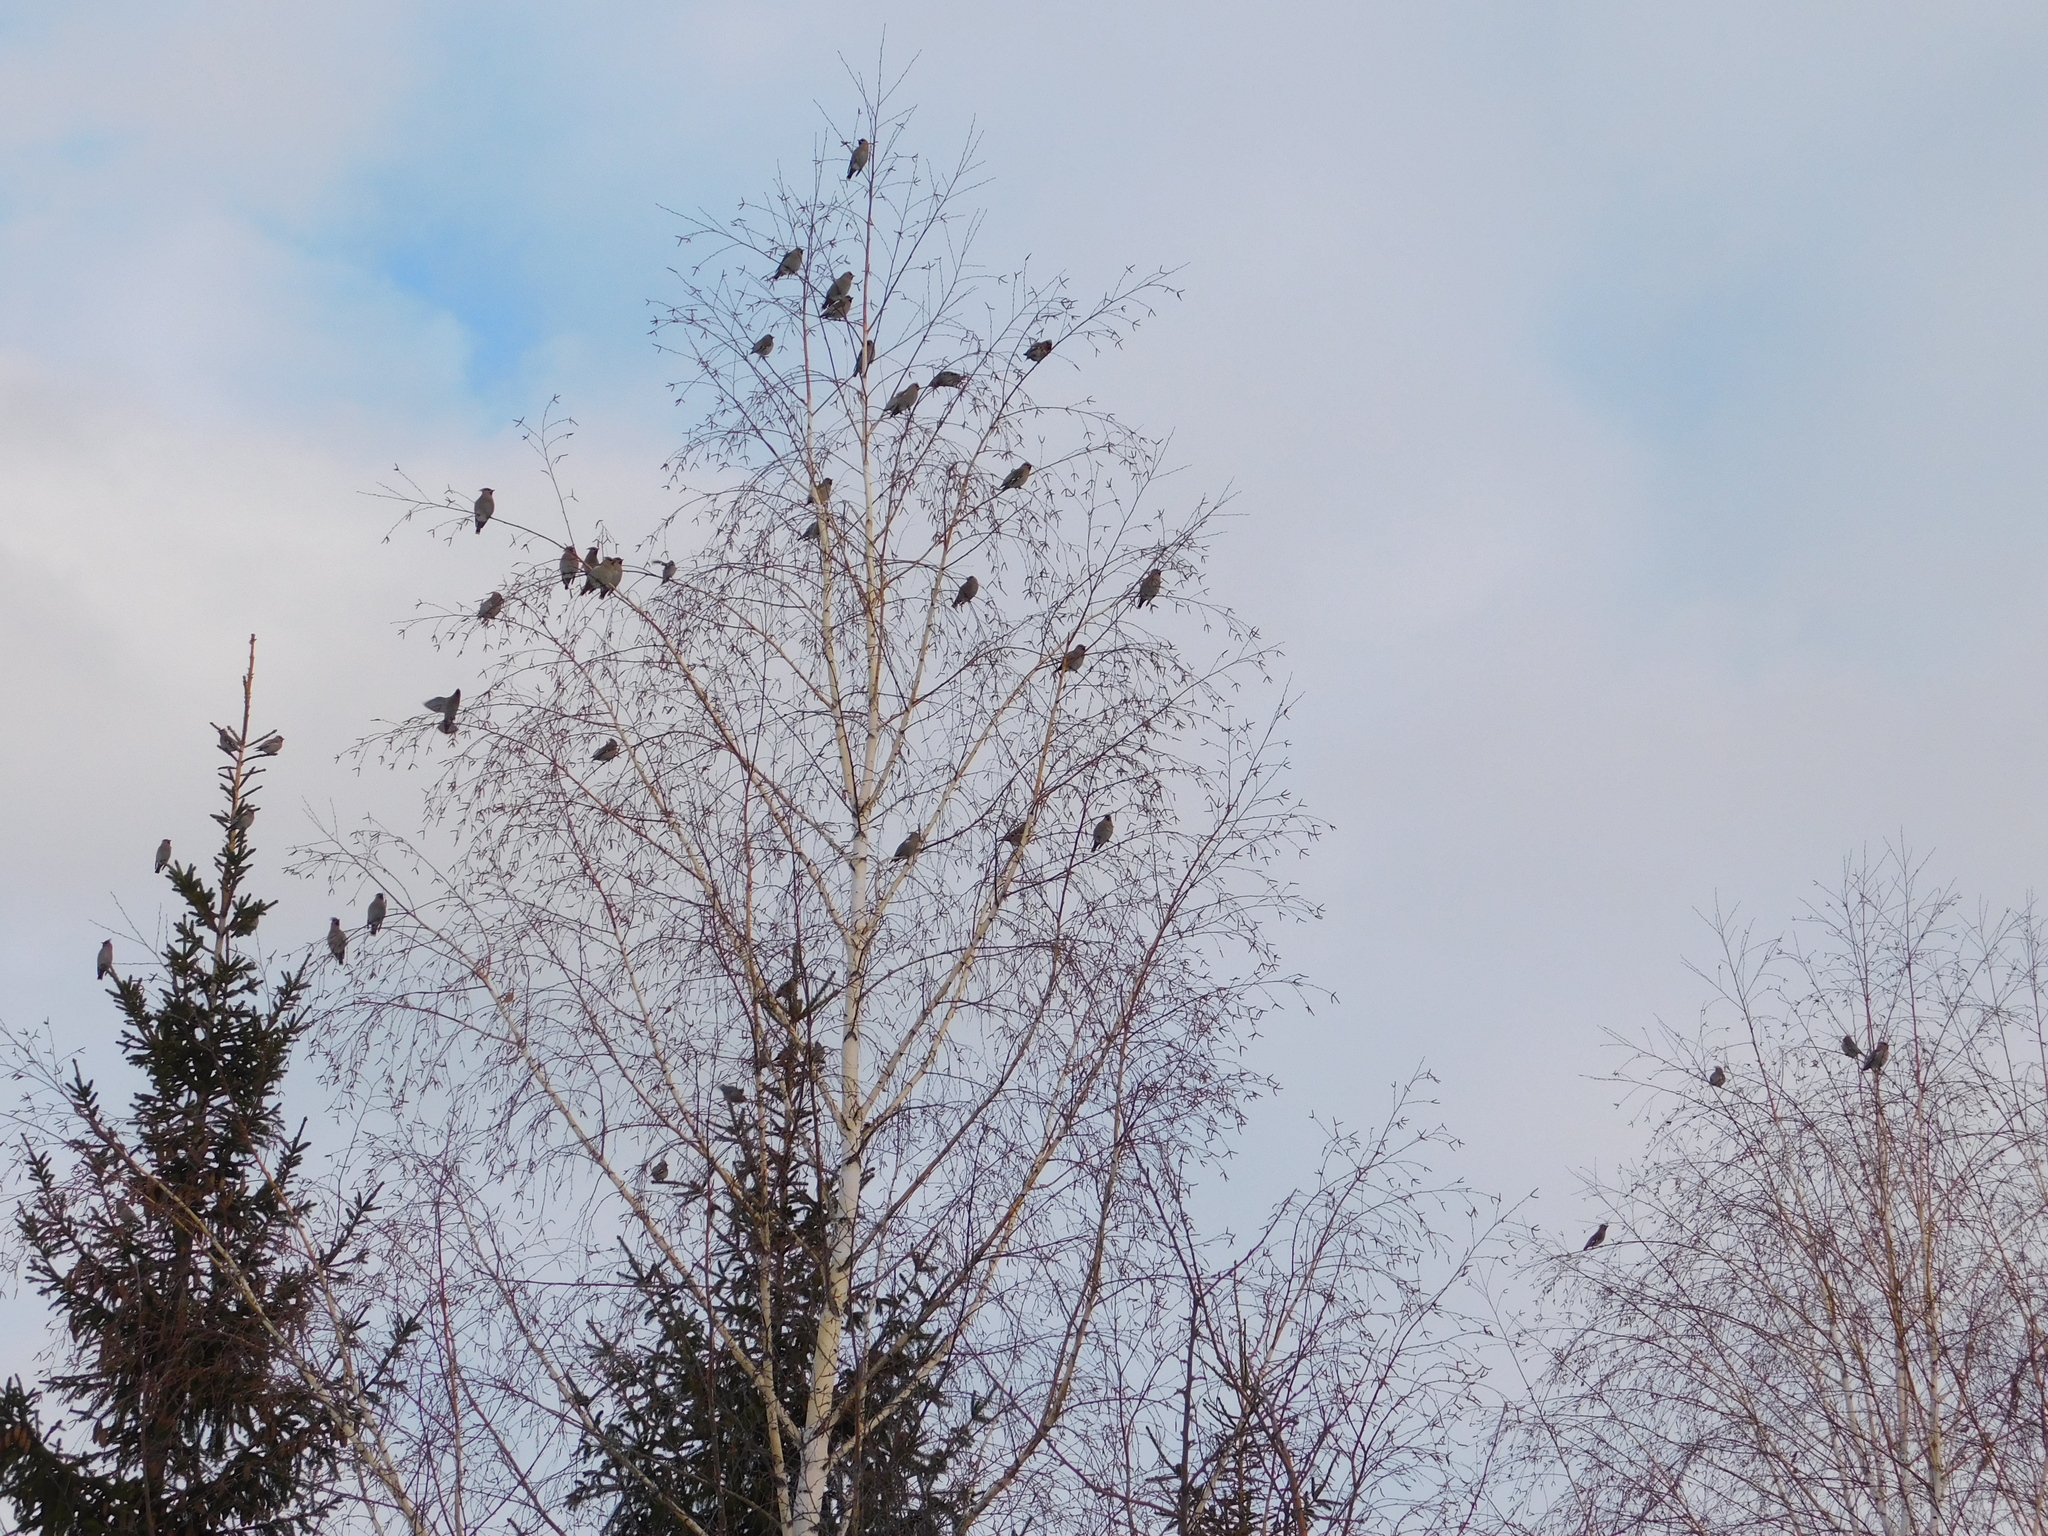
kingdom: Animalia
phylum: Chordata
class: Aves
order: Passeriformes
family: Bombycillidae
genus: Bombycilla
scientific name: Bombycilla garrulus
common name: Bohemian waxwing
